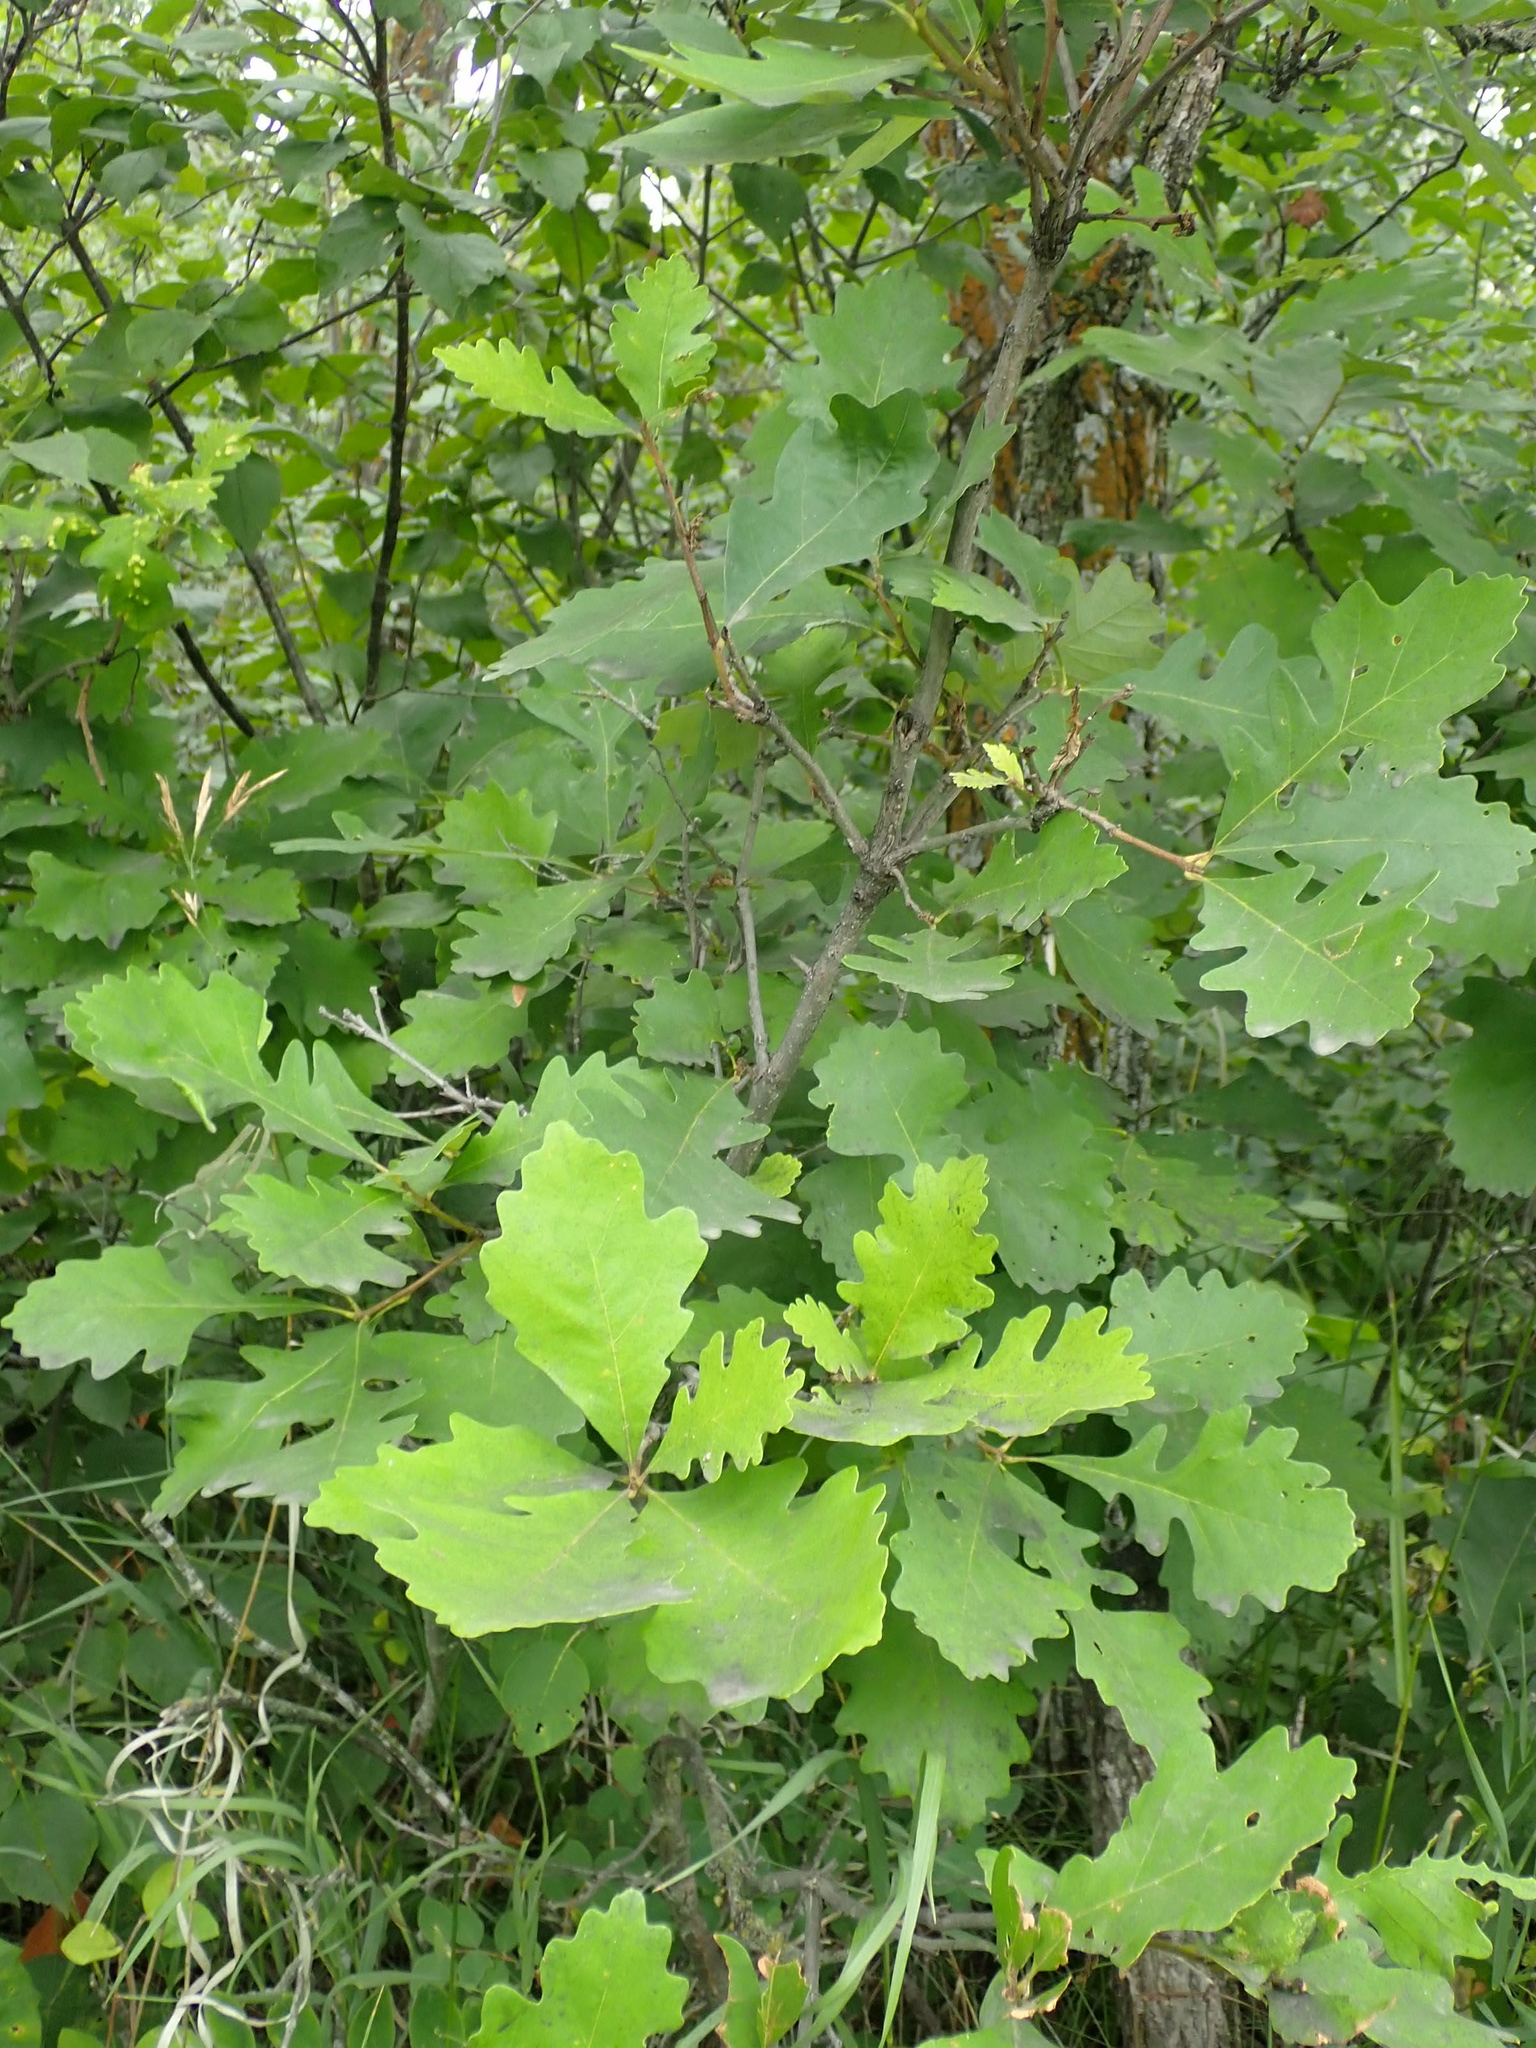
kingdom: Plantae
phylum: Tracheophyta
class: Magnoliopsida
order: Fagales
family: Fagaceae
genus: Quercus
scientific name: Quercus macrocarpa
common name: Bur oak
